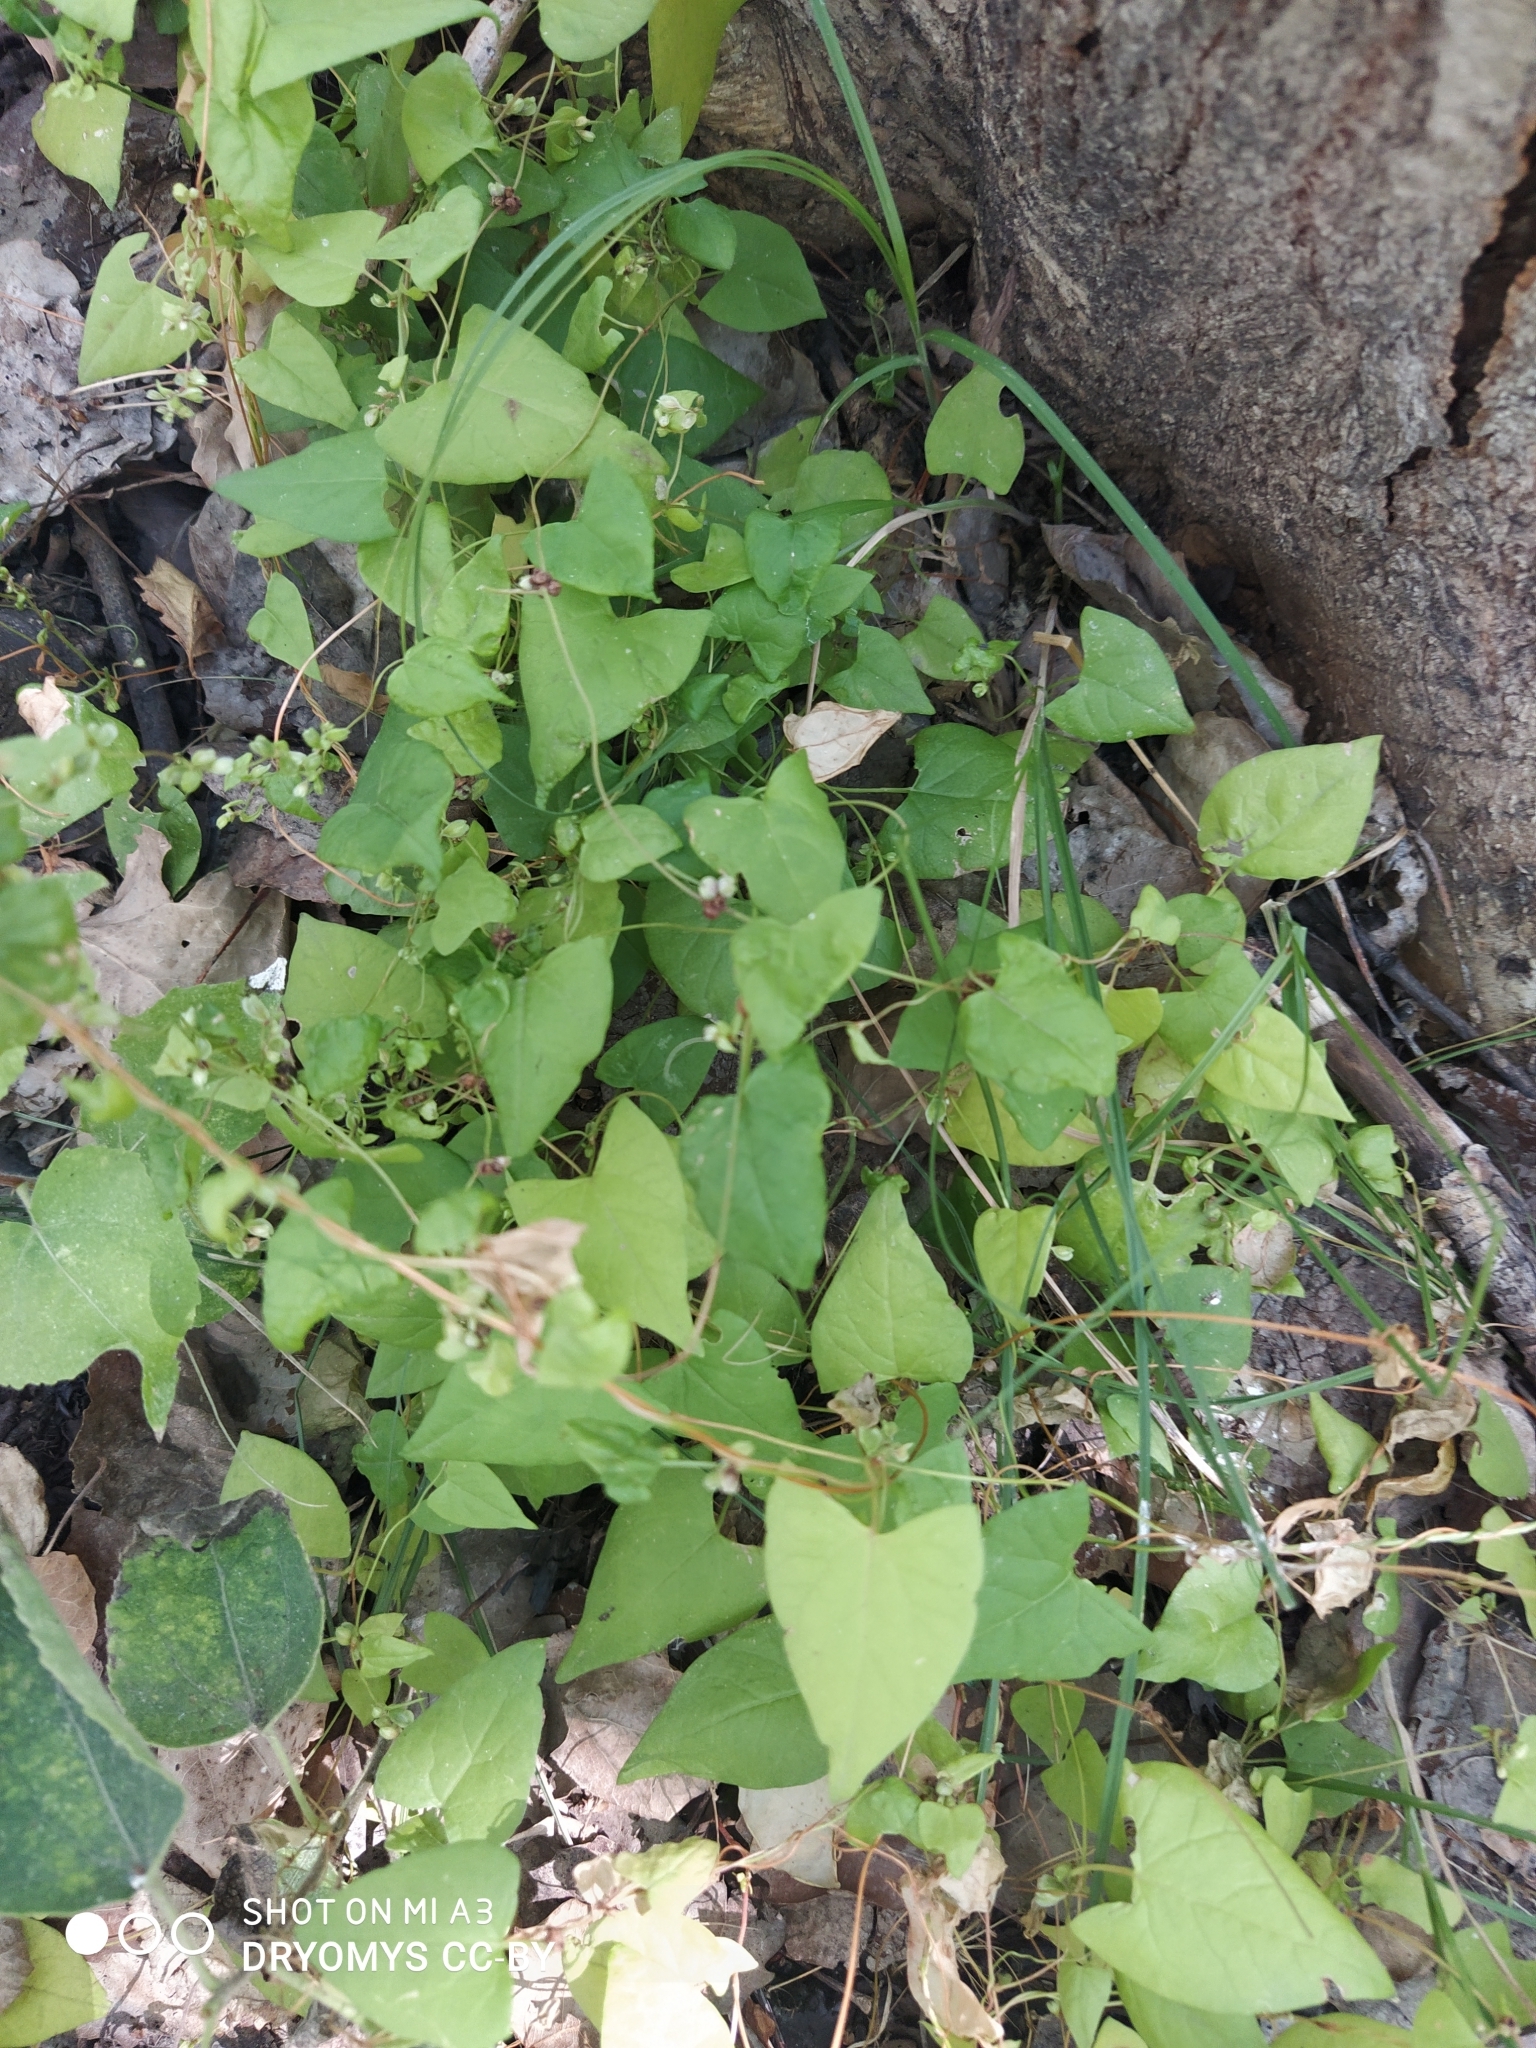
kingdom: Plantae
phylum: Tracheophyta
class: Magnoliopsida
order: Caryophyllales
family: Polygonaceae
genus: Fallopia
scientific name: Fallopia convolvulus
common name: Black bindweed
